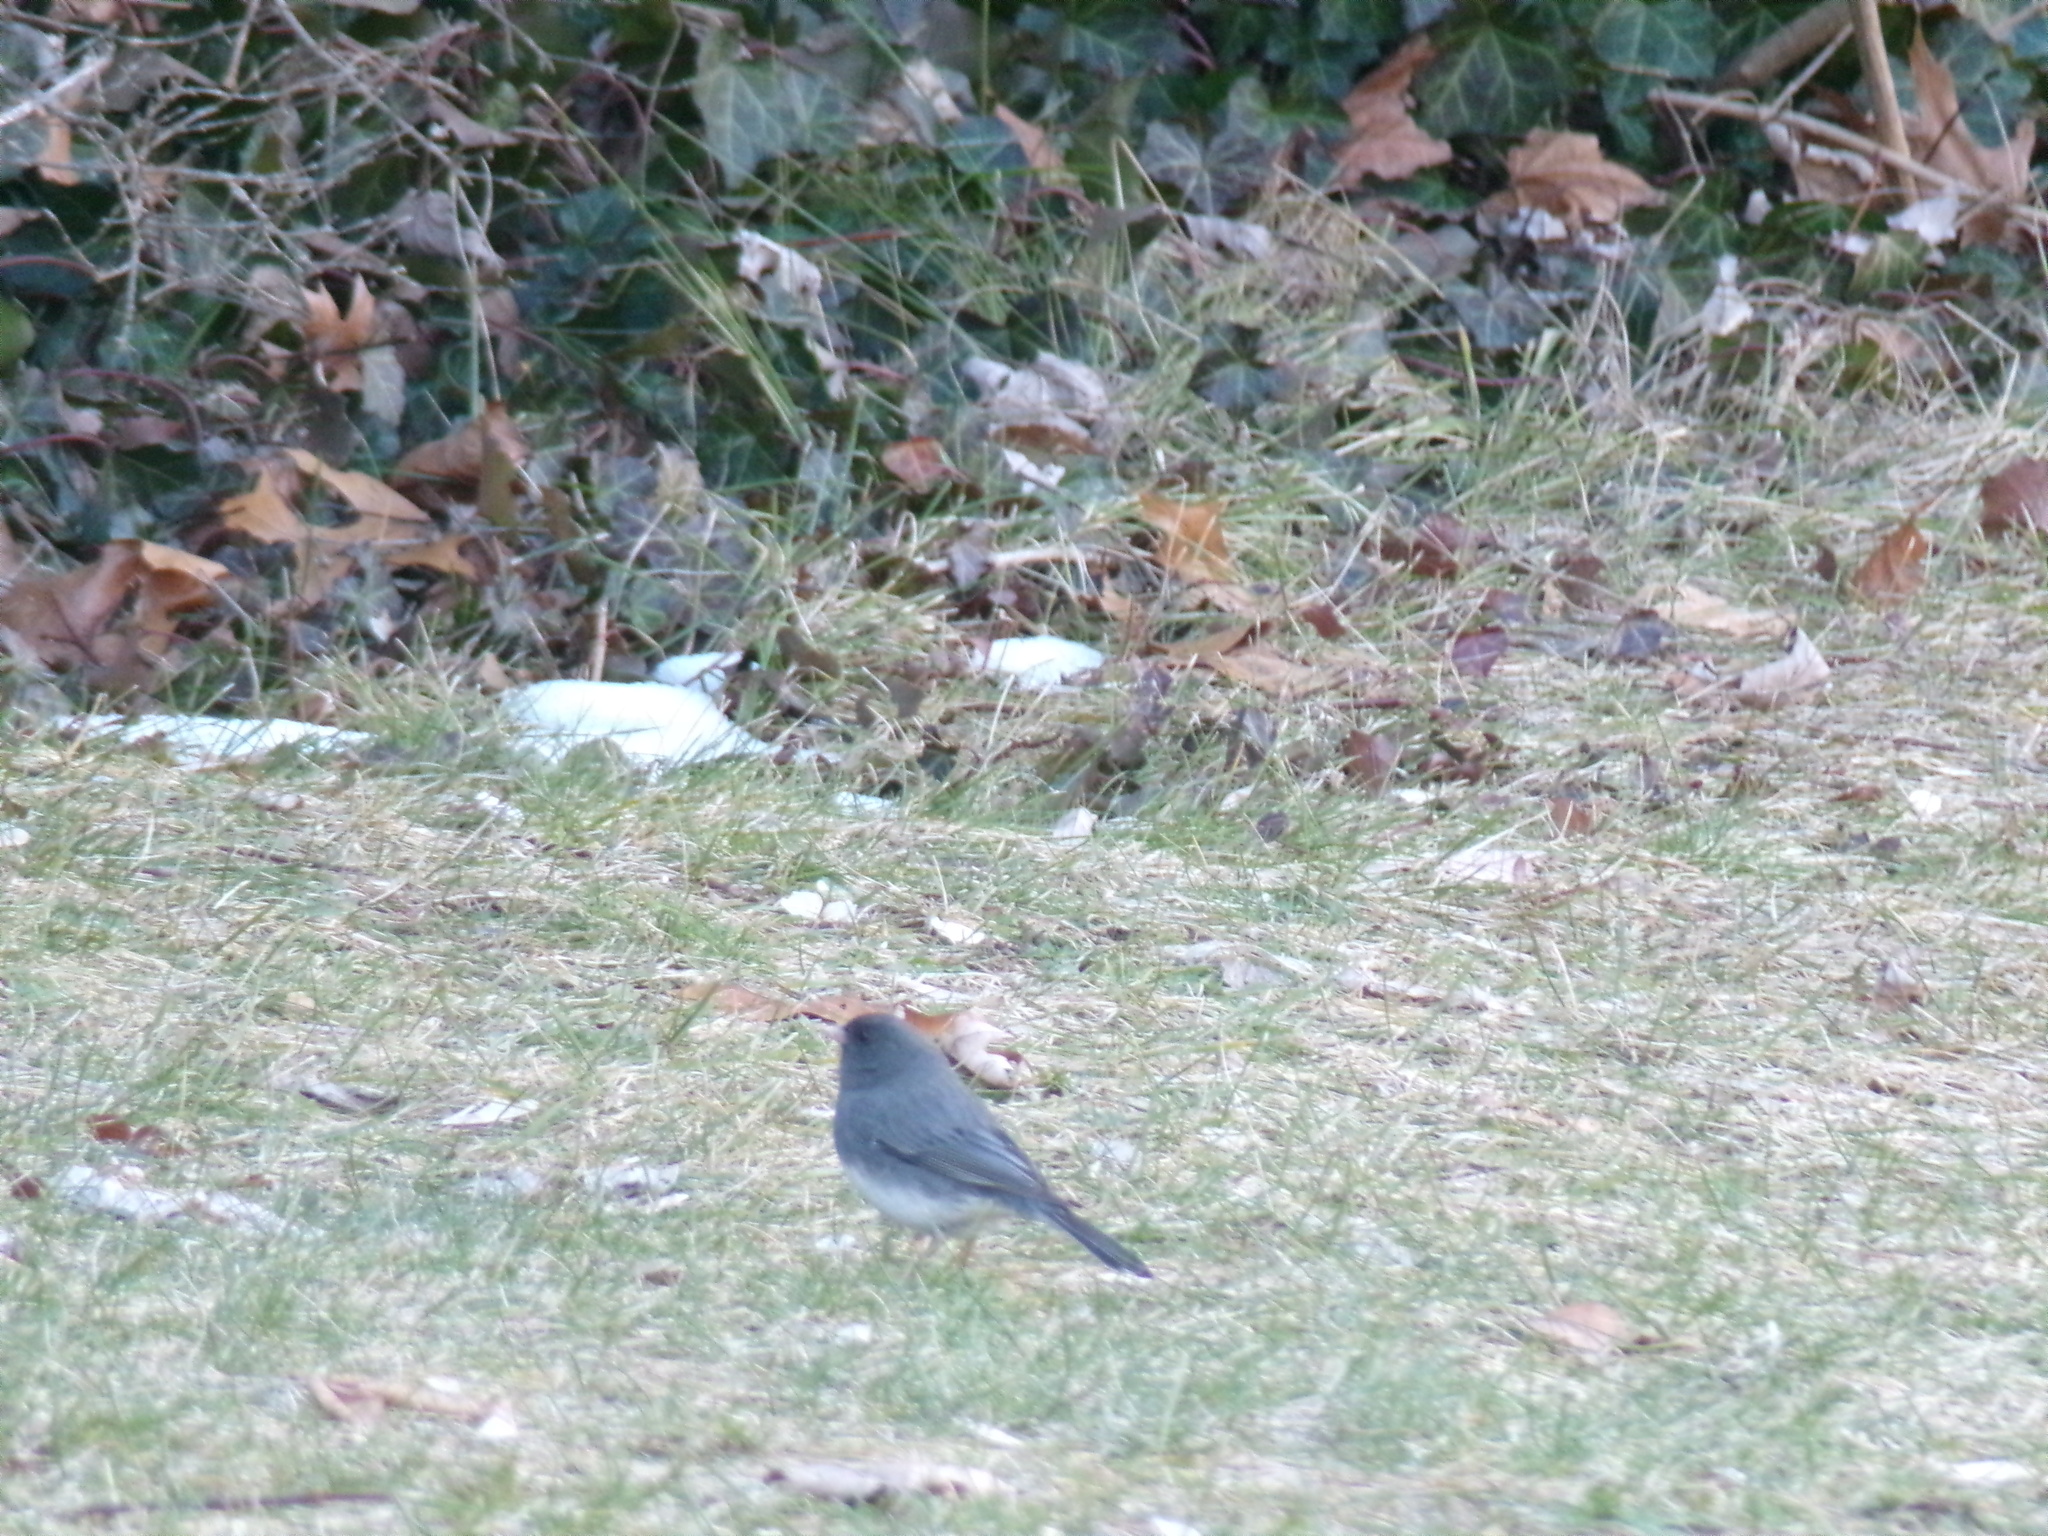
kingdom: Animalia
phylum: Chordata
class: Aves
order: Passeriformes
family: Passerellidae
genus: Junco
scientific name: Junco hyemalis
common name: Dark-eyed junco
